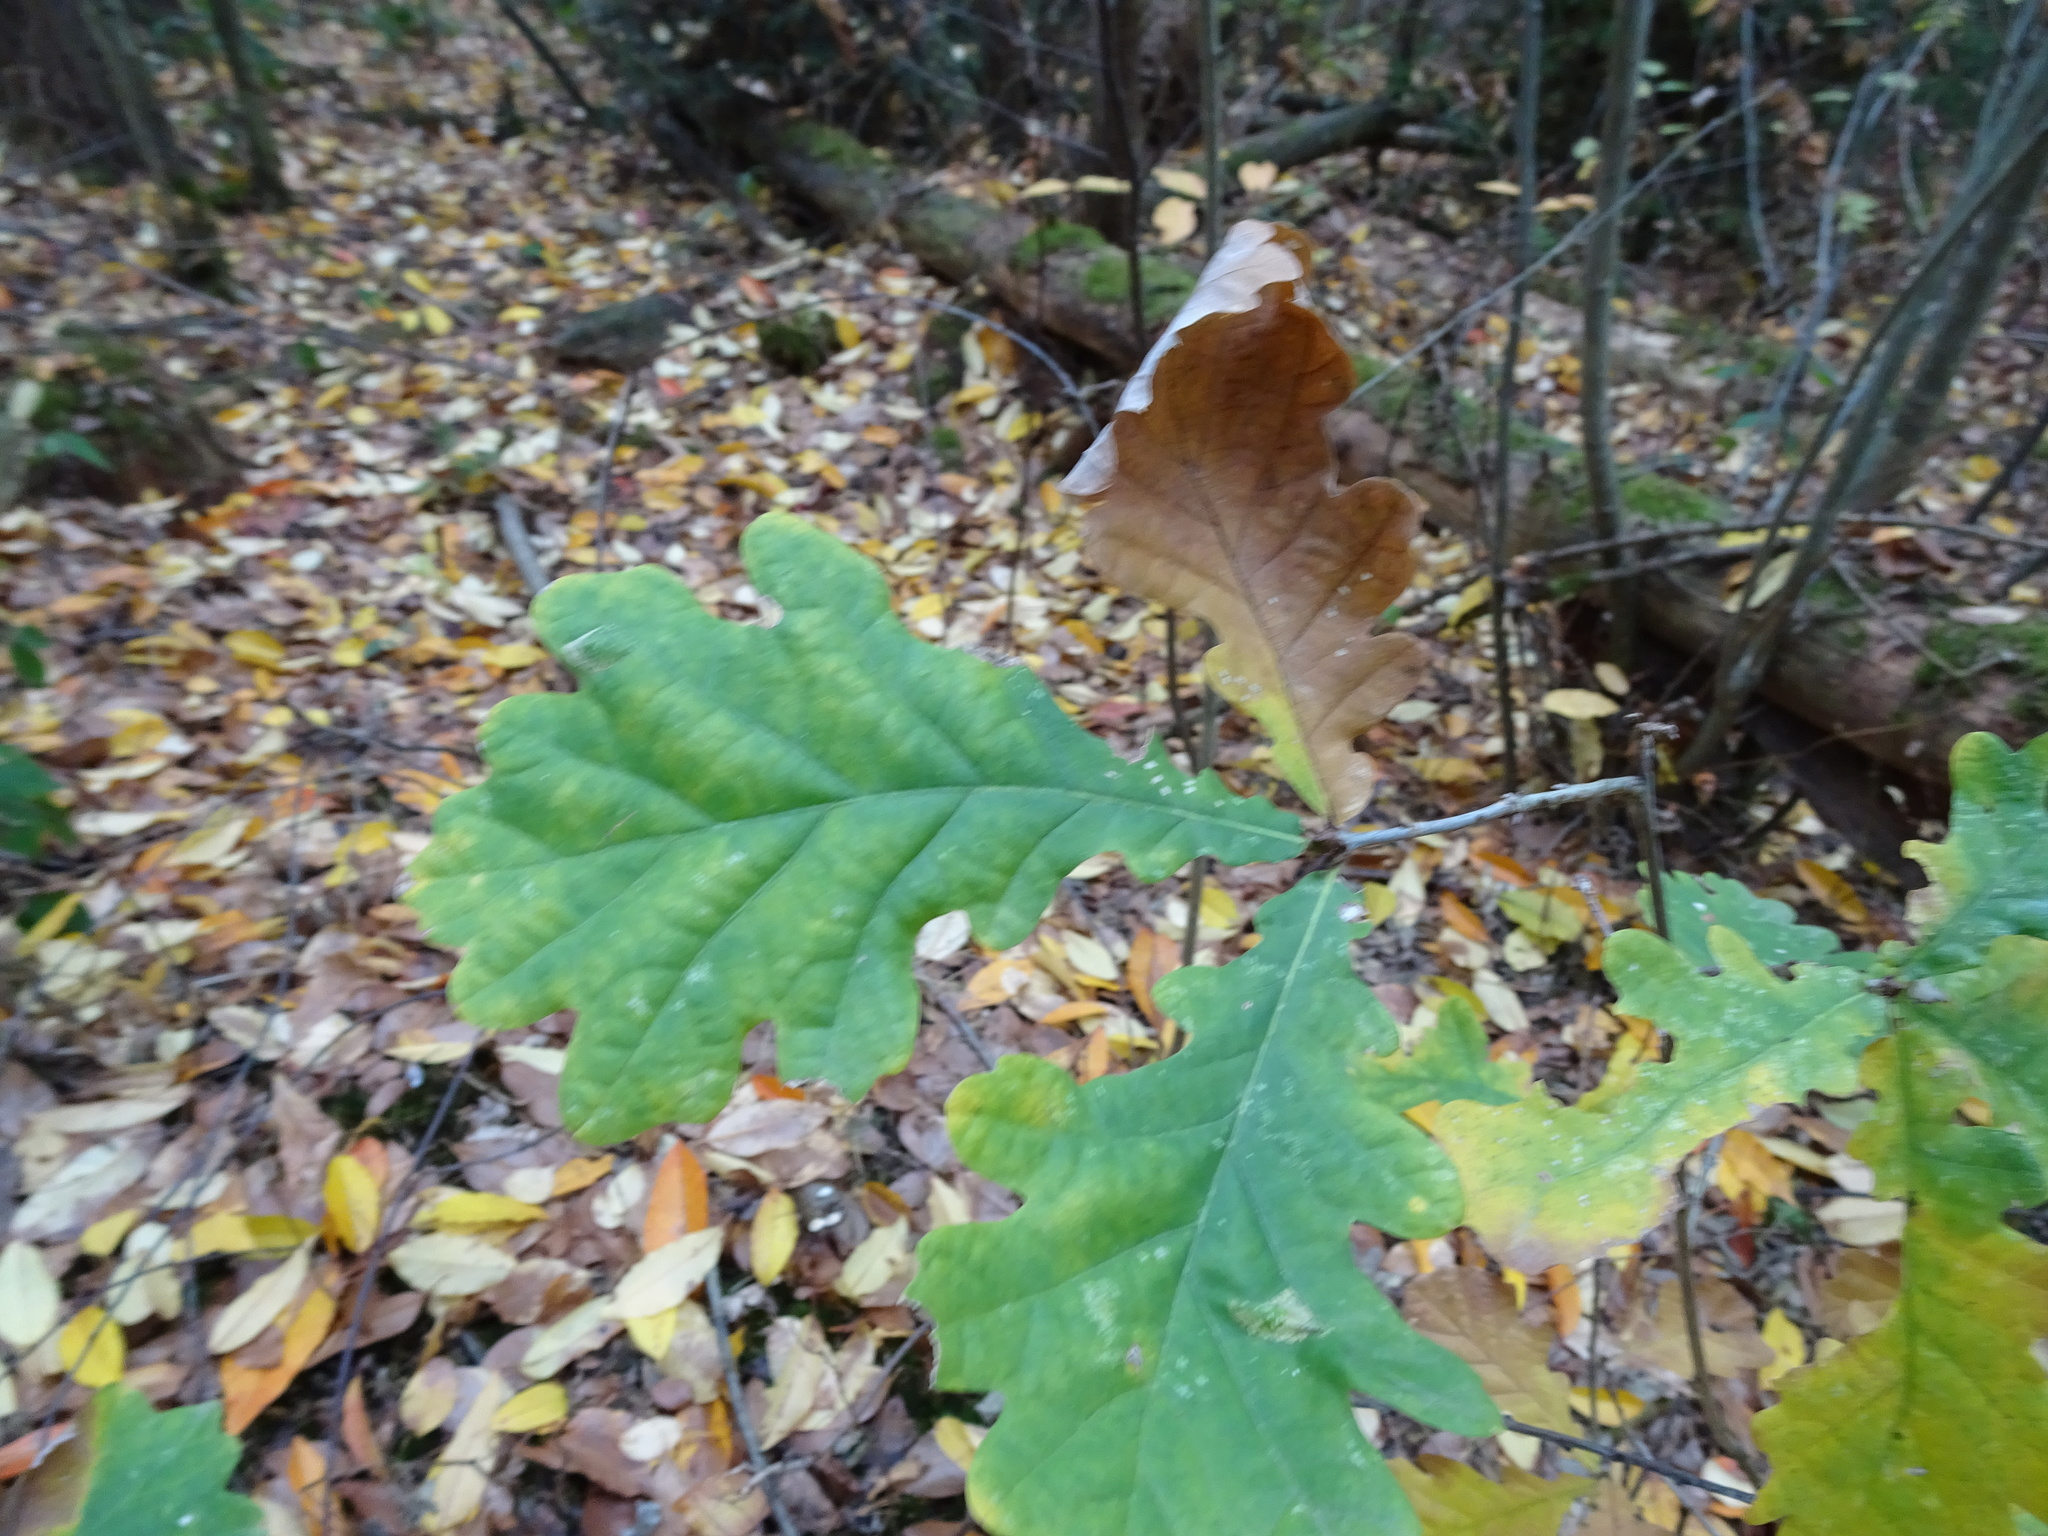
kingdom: Plantae
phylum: Tracheophyta
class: Magnoliopsida
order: Fagales
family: Fagaceae
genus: Quercus
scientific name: Quercus robur
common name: Pedunculate oak
